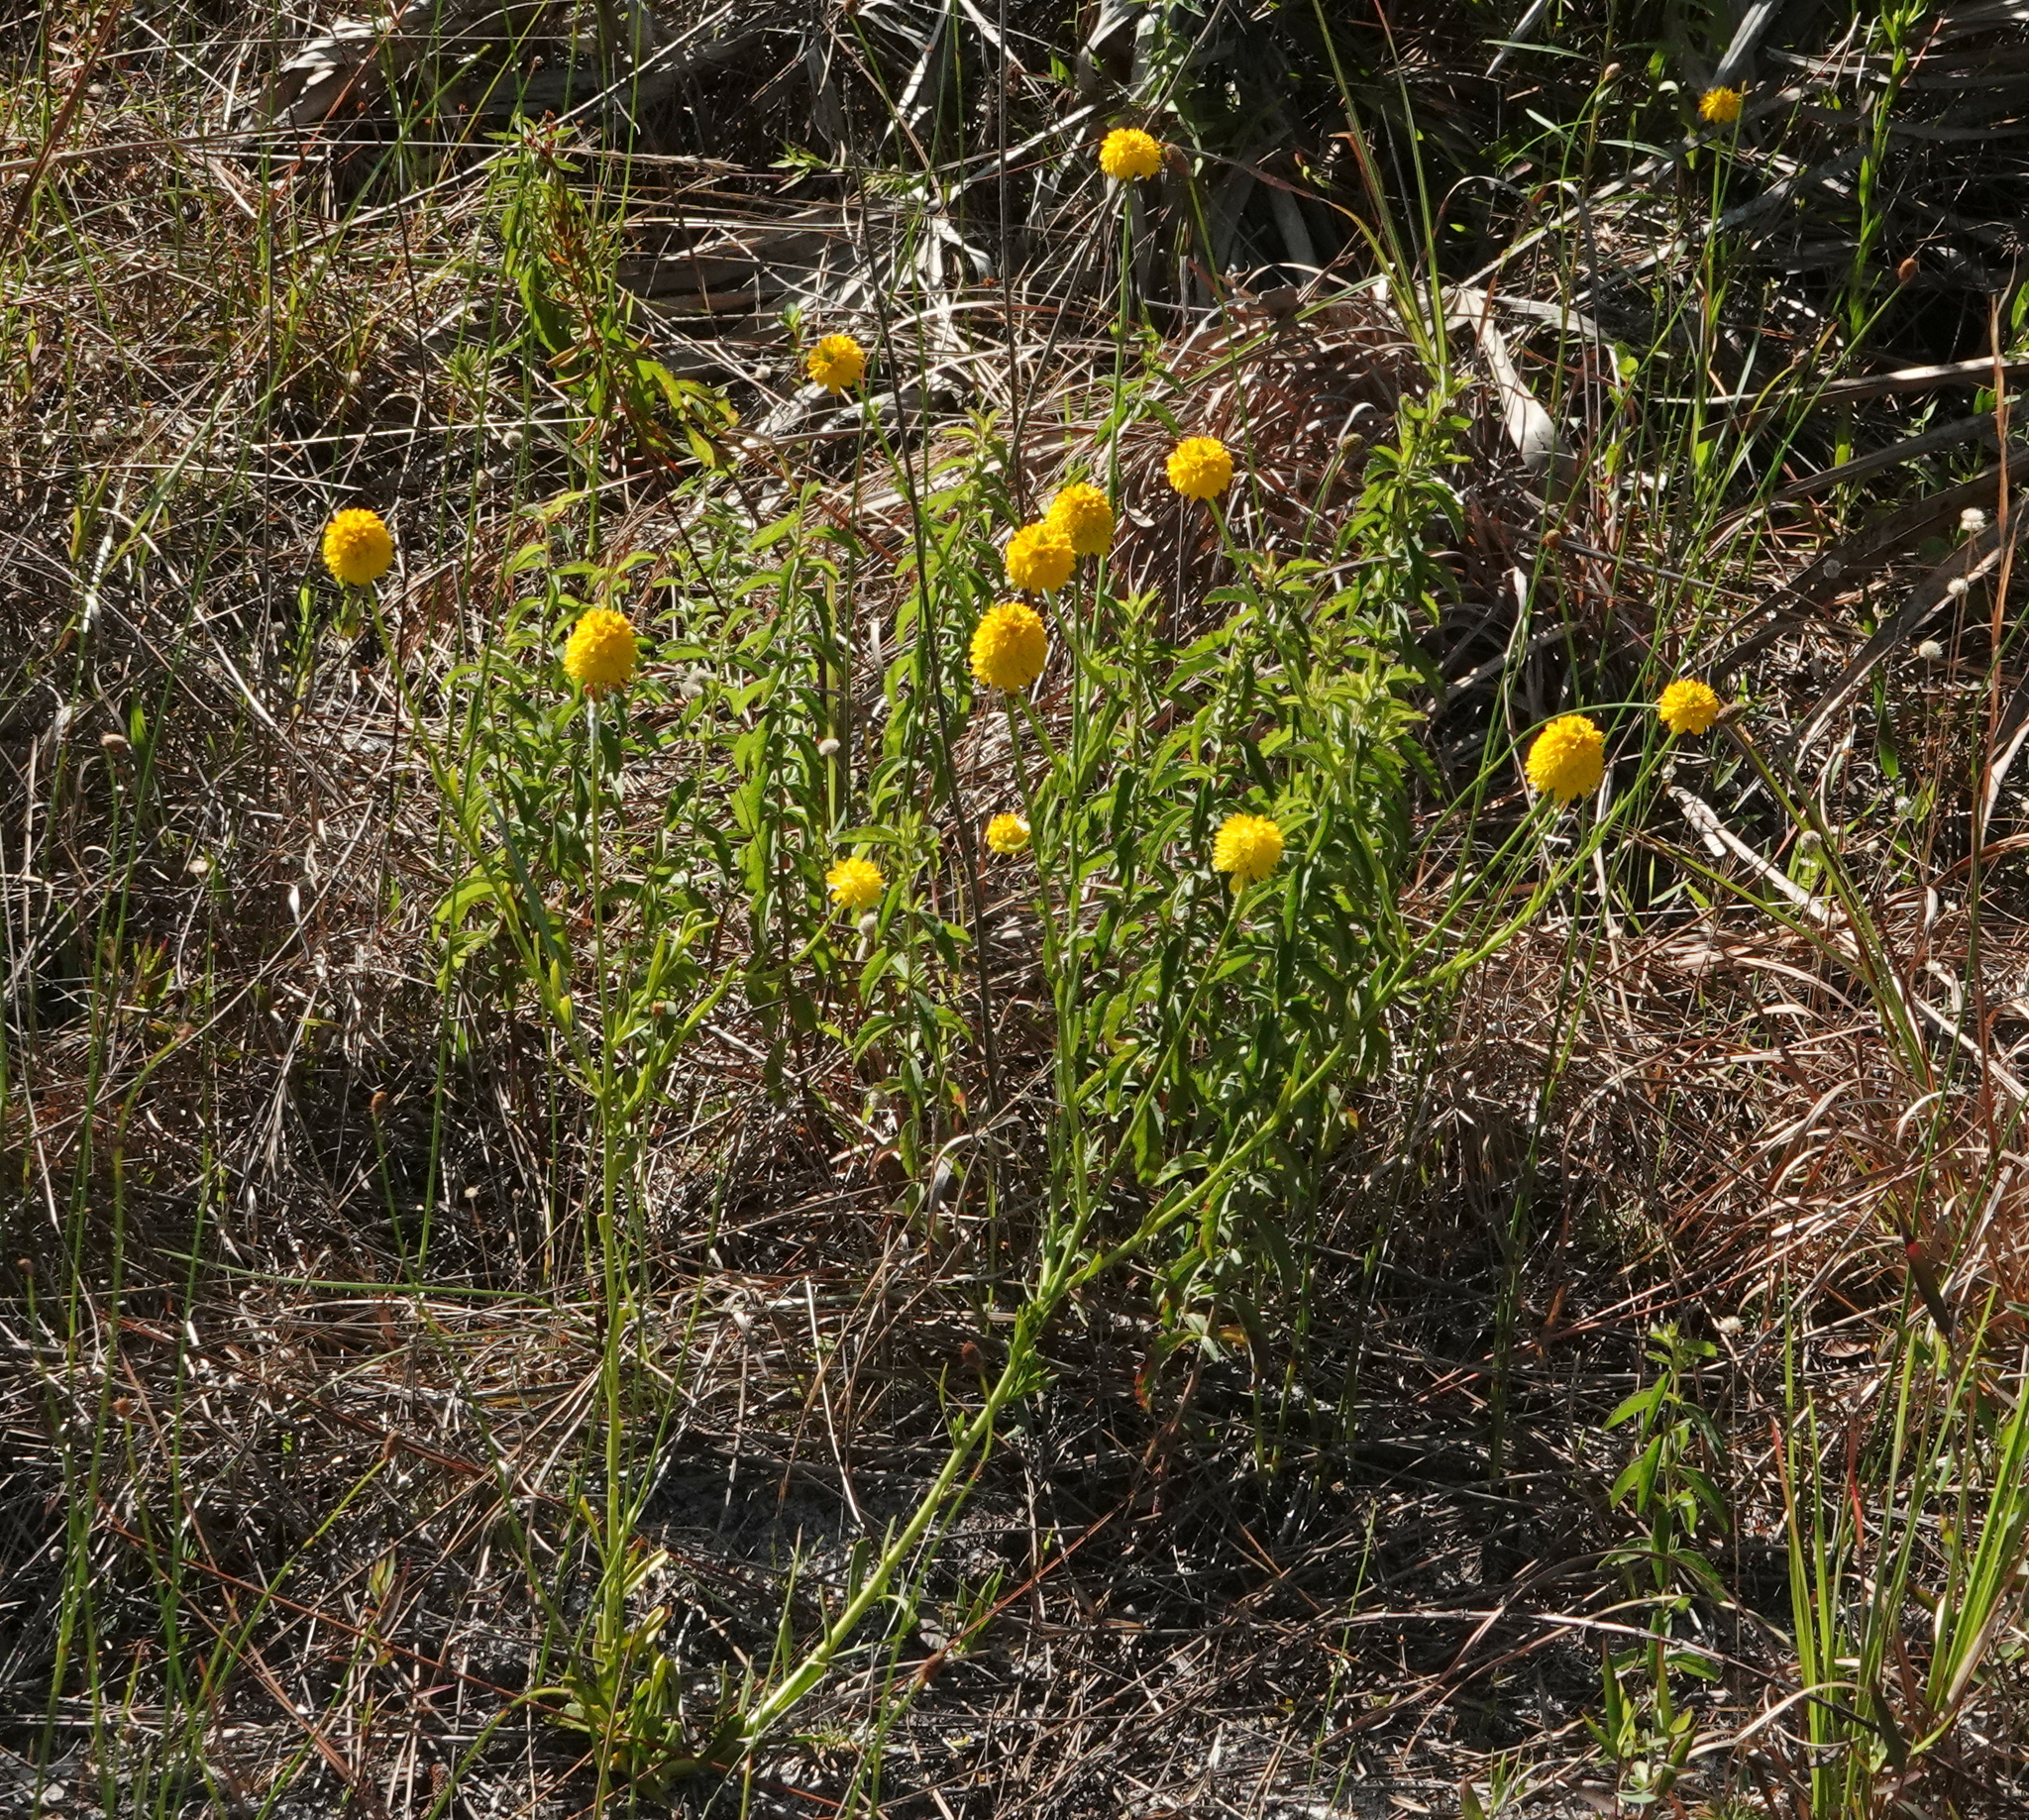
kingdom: Plantae
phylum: Tracheophyta
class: Magnoliopsida
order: Fabales
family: Polygalaceae
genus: Polygala
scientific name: Polygala rugelii
